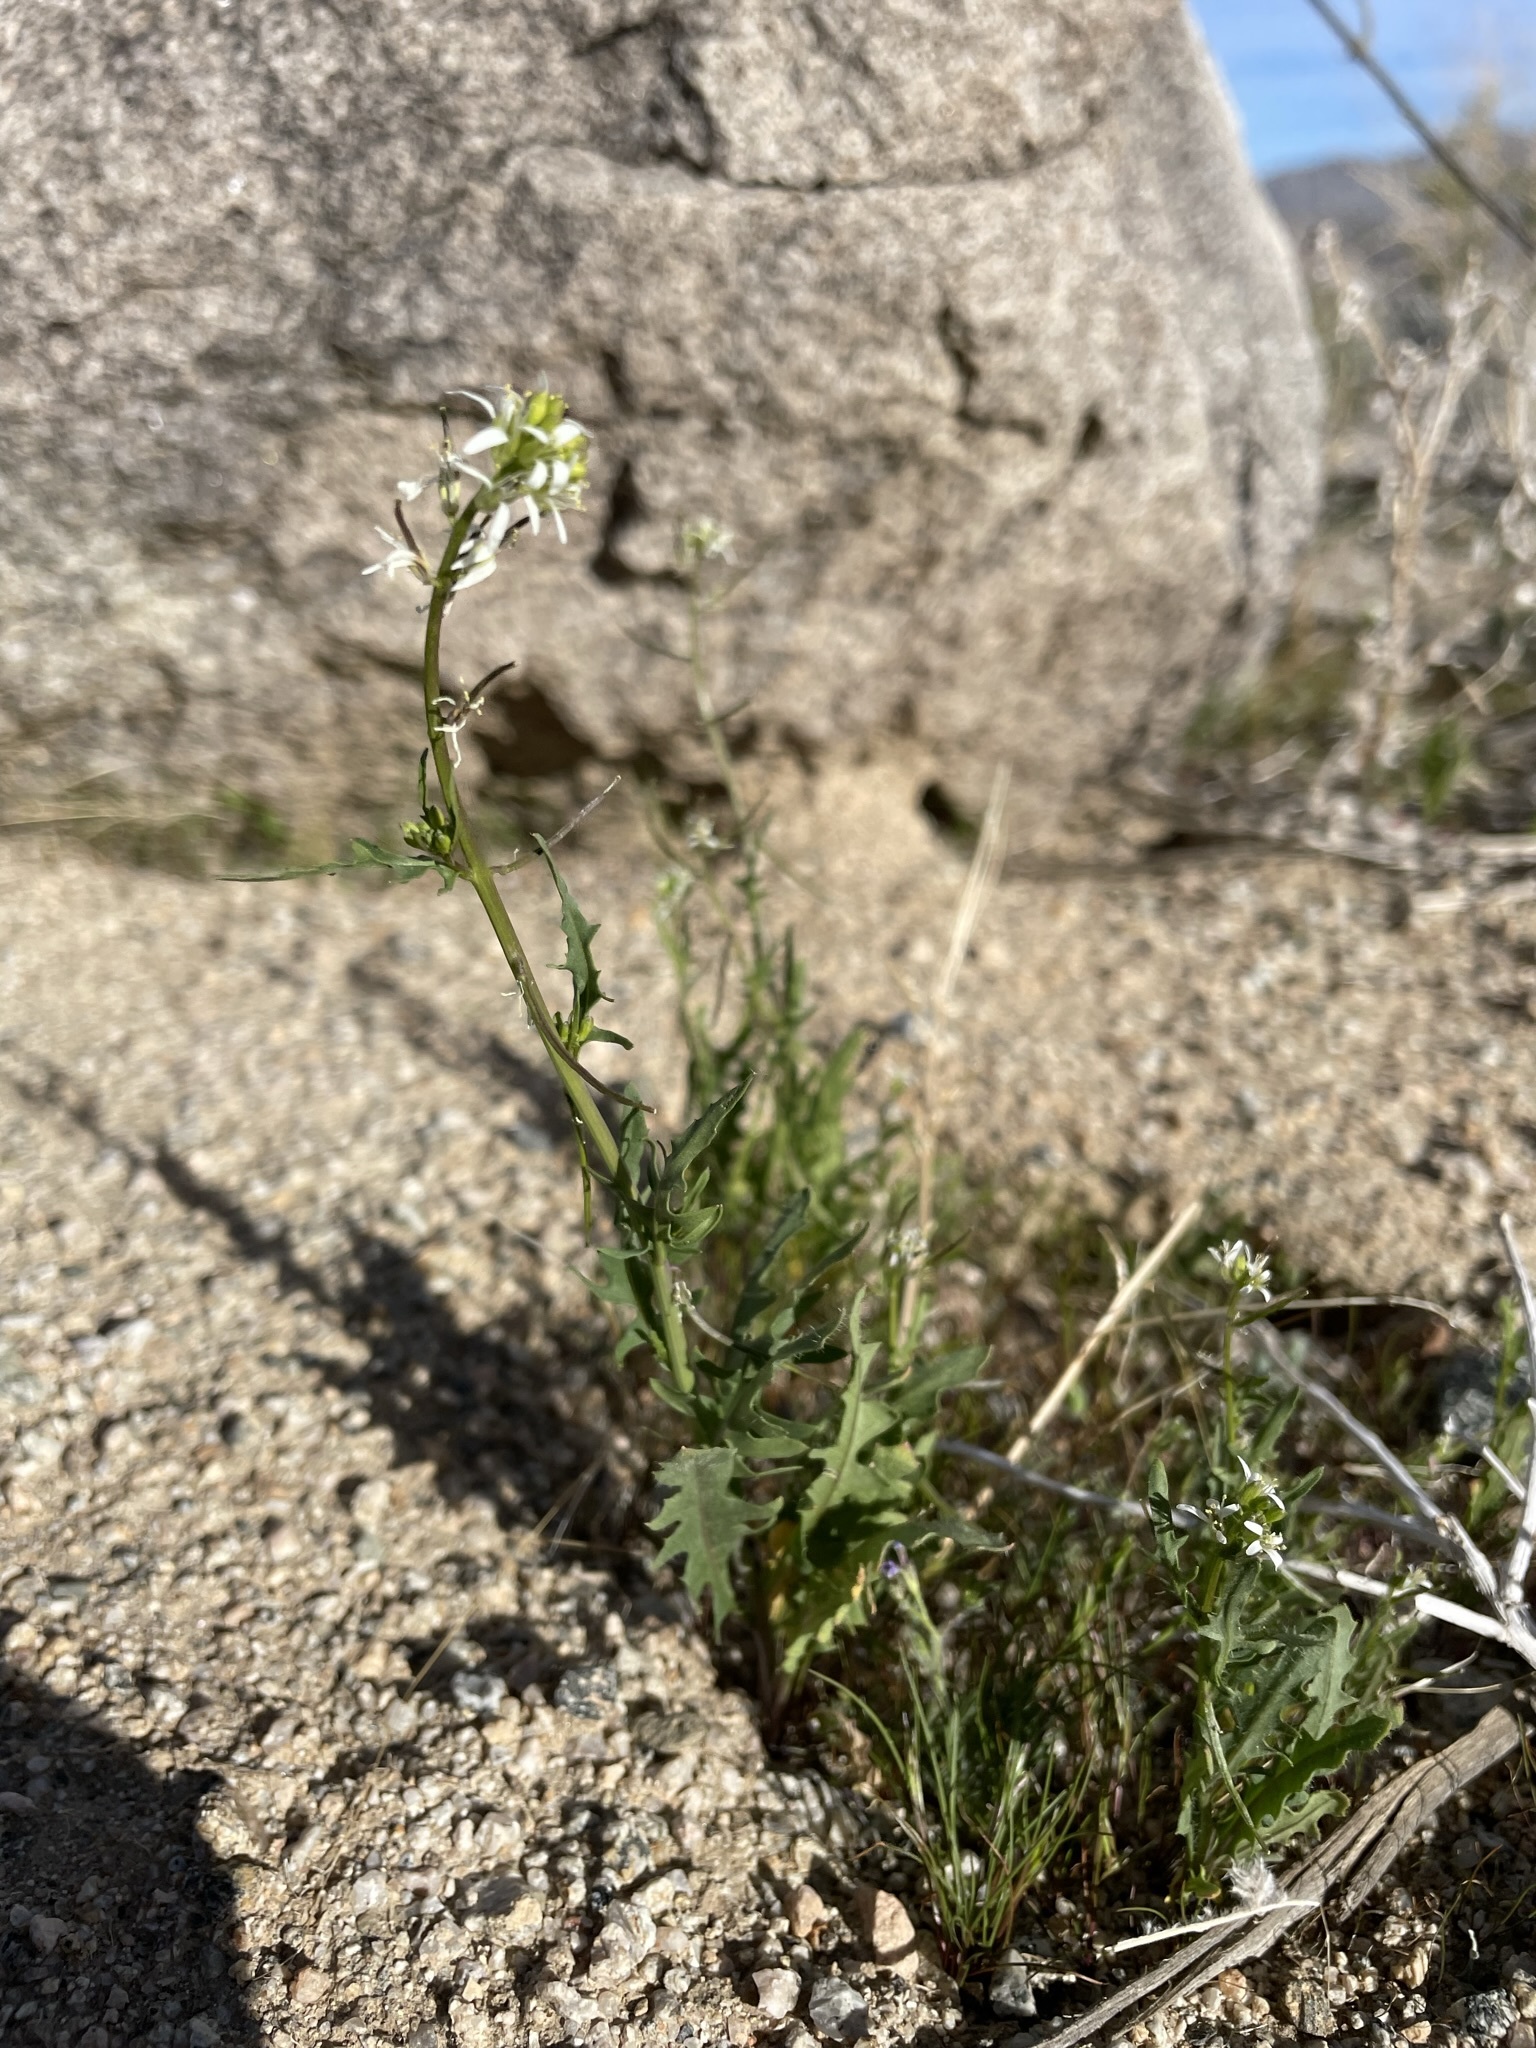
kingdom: Plantae
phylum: Tracheophyta
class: Magnoliopsida
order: Brassicales
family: Brassicaceae
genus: Streptanthus
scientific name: Streptanthus lasiophyllus
